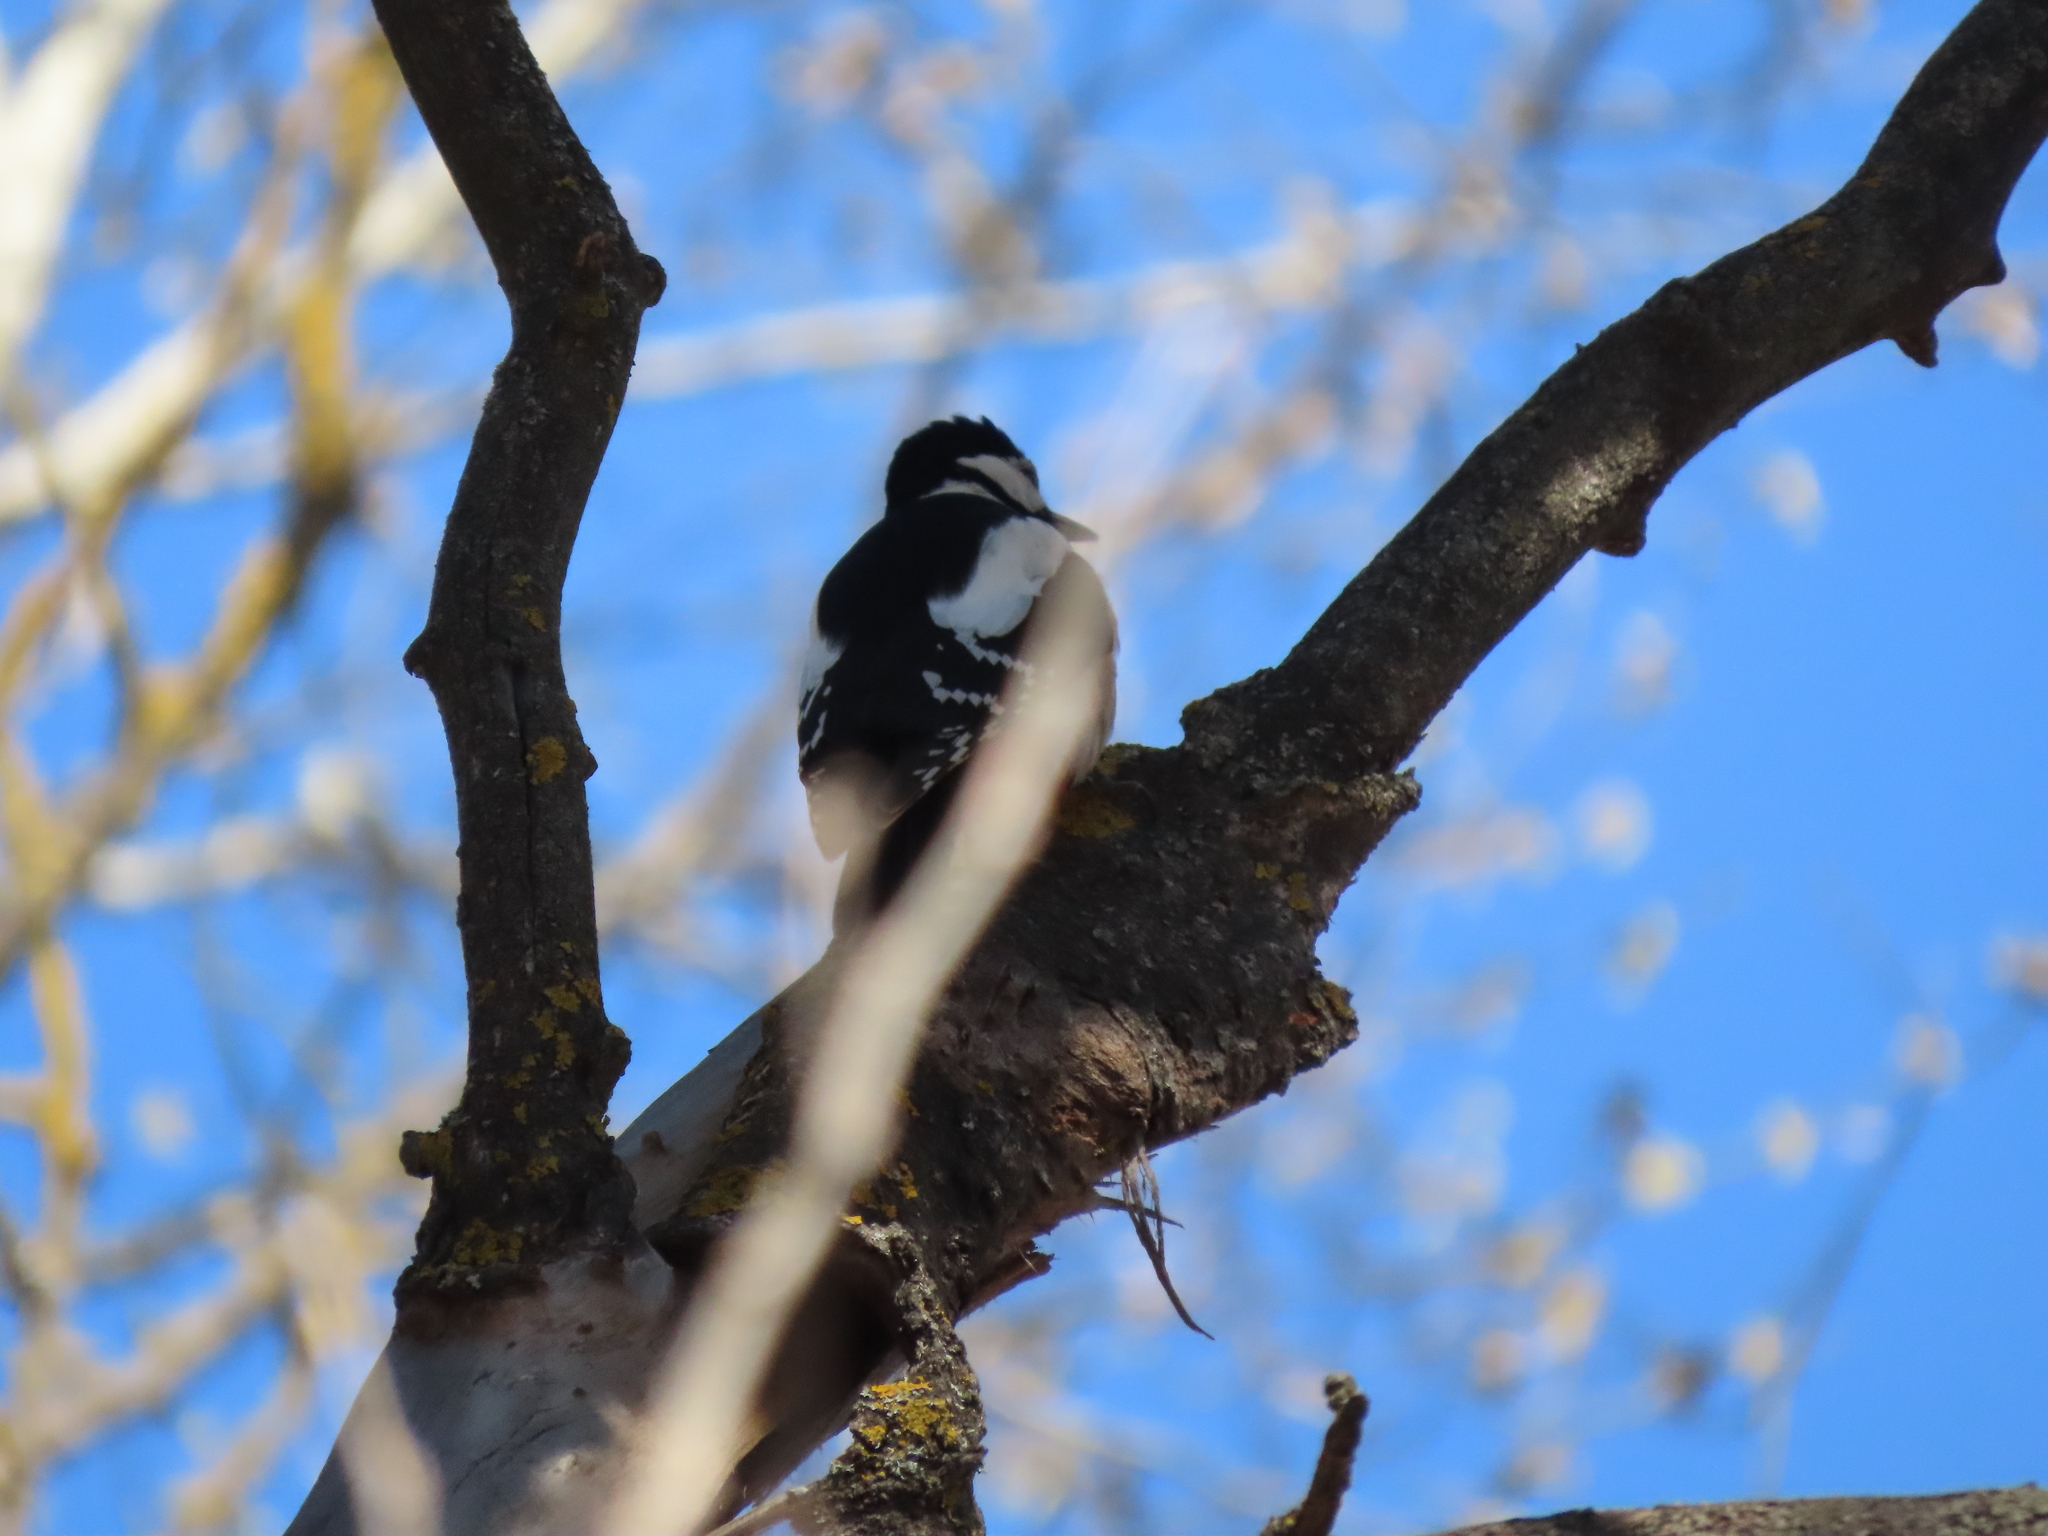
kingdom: Animalia
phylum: Chordata
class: Aves
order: Piciformes
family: Picidae
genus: Dendrocopos
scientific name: Dendrocopos major
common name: Great spotted woodpecker
